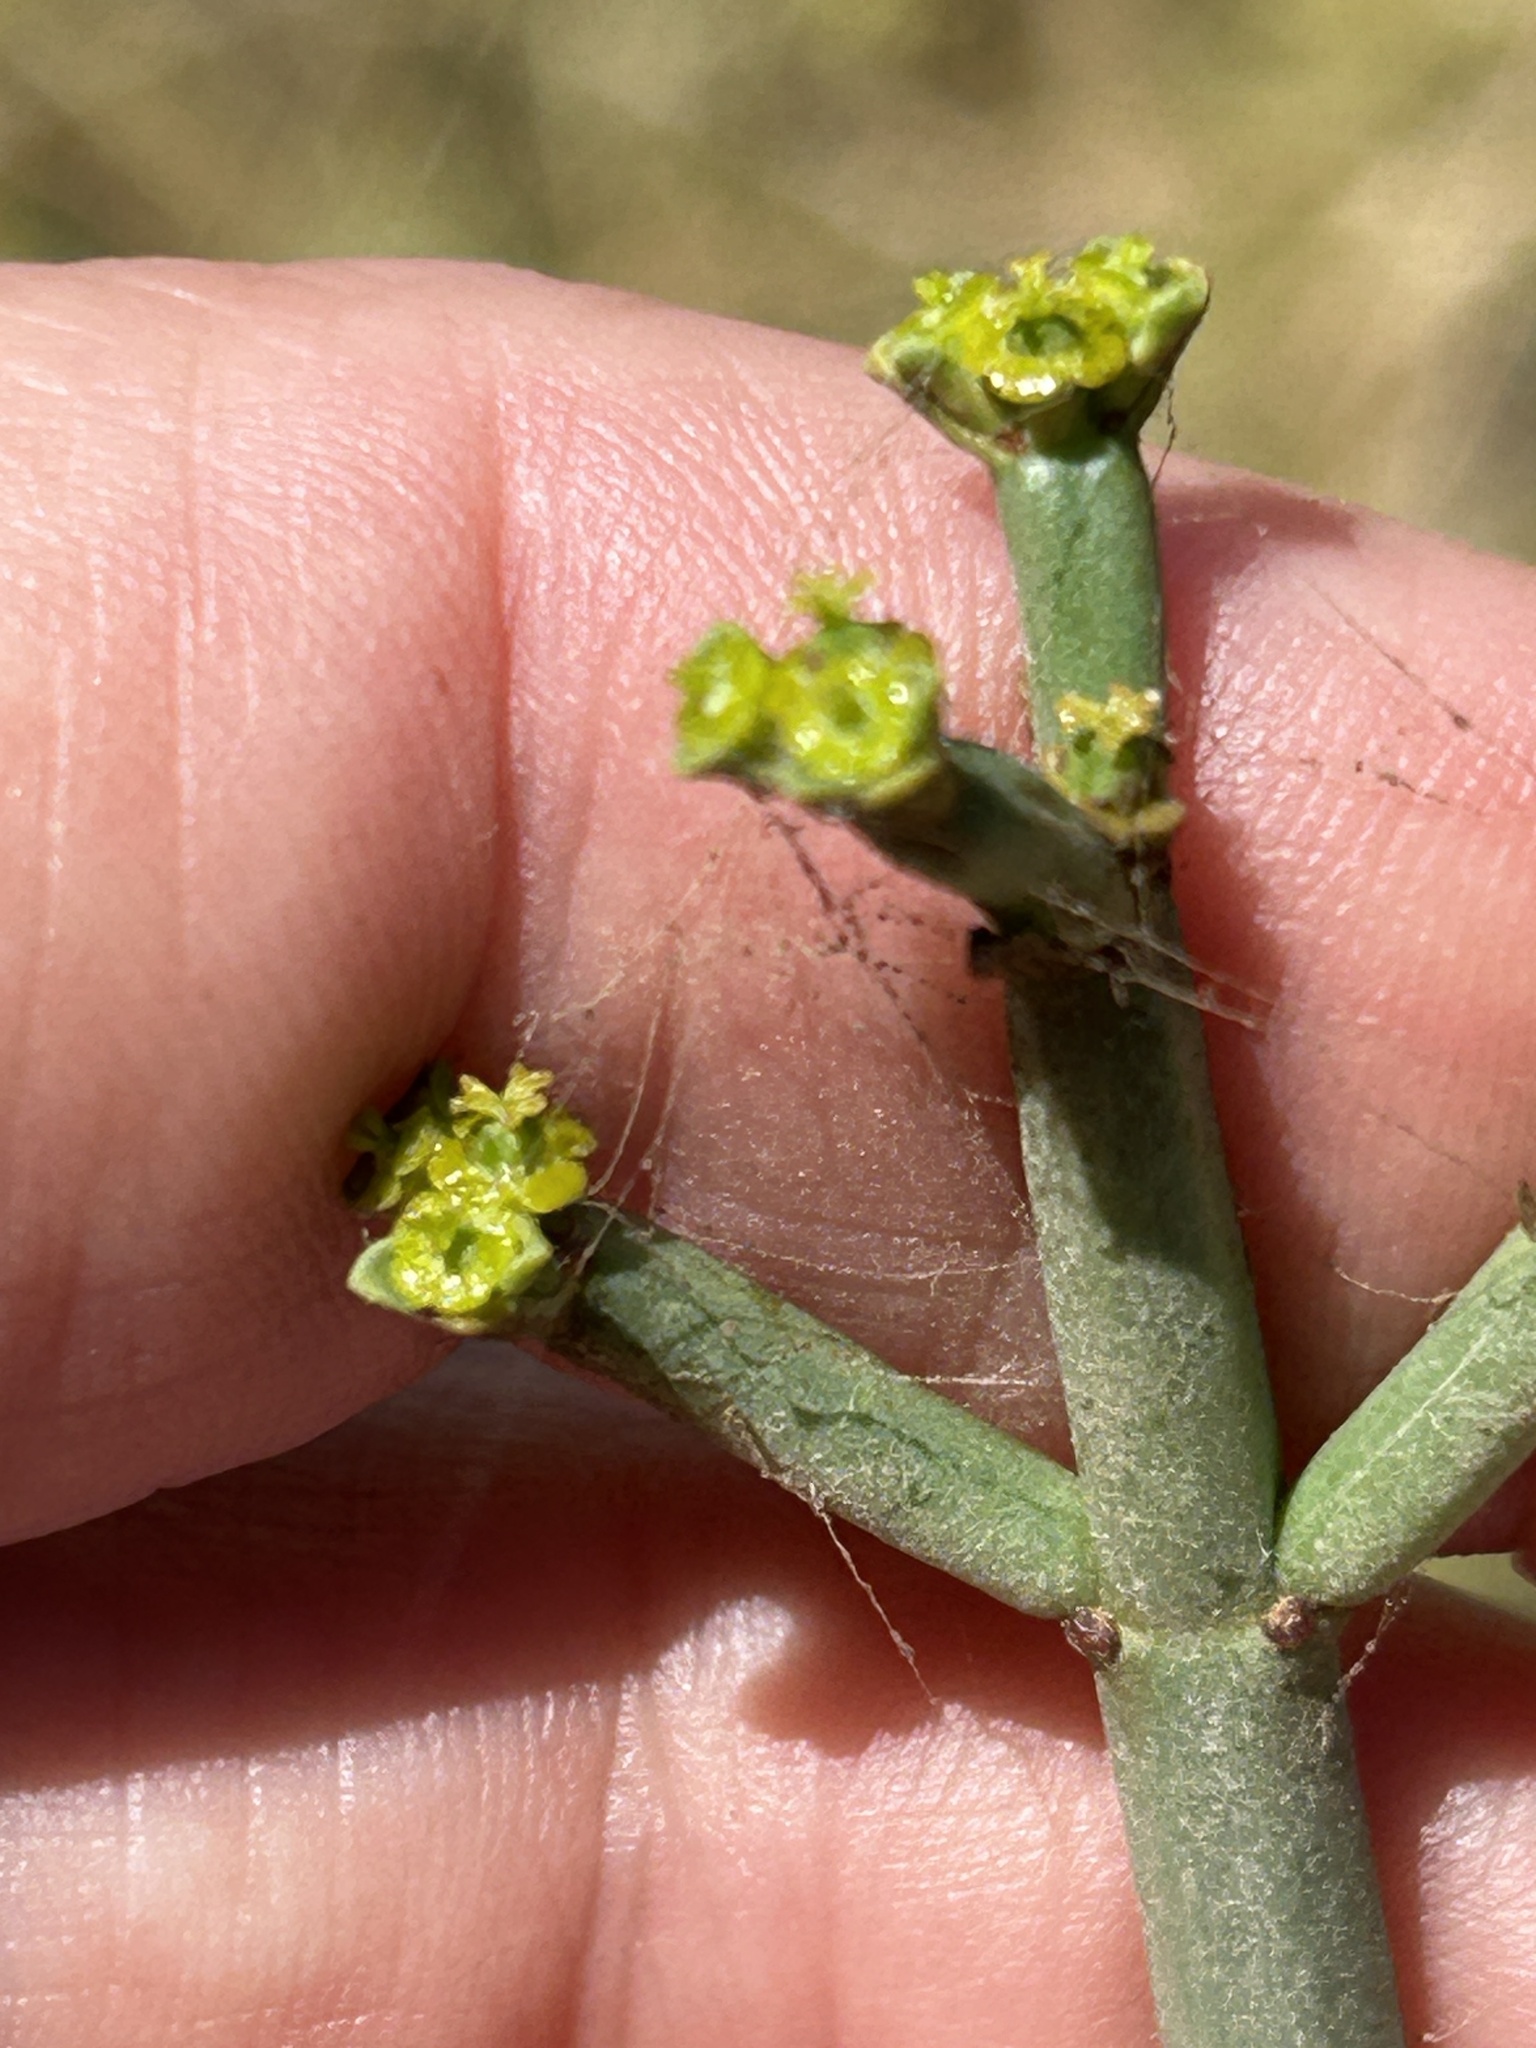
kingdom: Plantae
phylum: Tracheophyta
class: Magnoliopsida
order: Malpighiales
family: Euphorbiaceae
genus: Euphorbia
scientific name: Euphorbia burmanni
